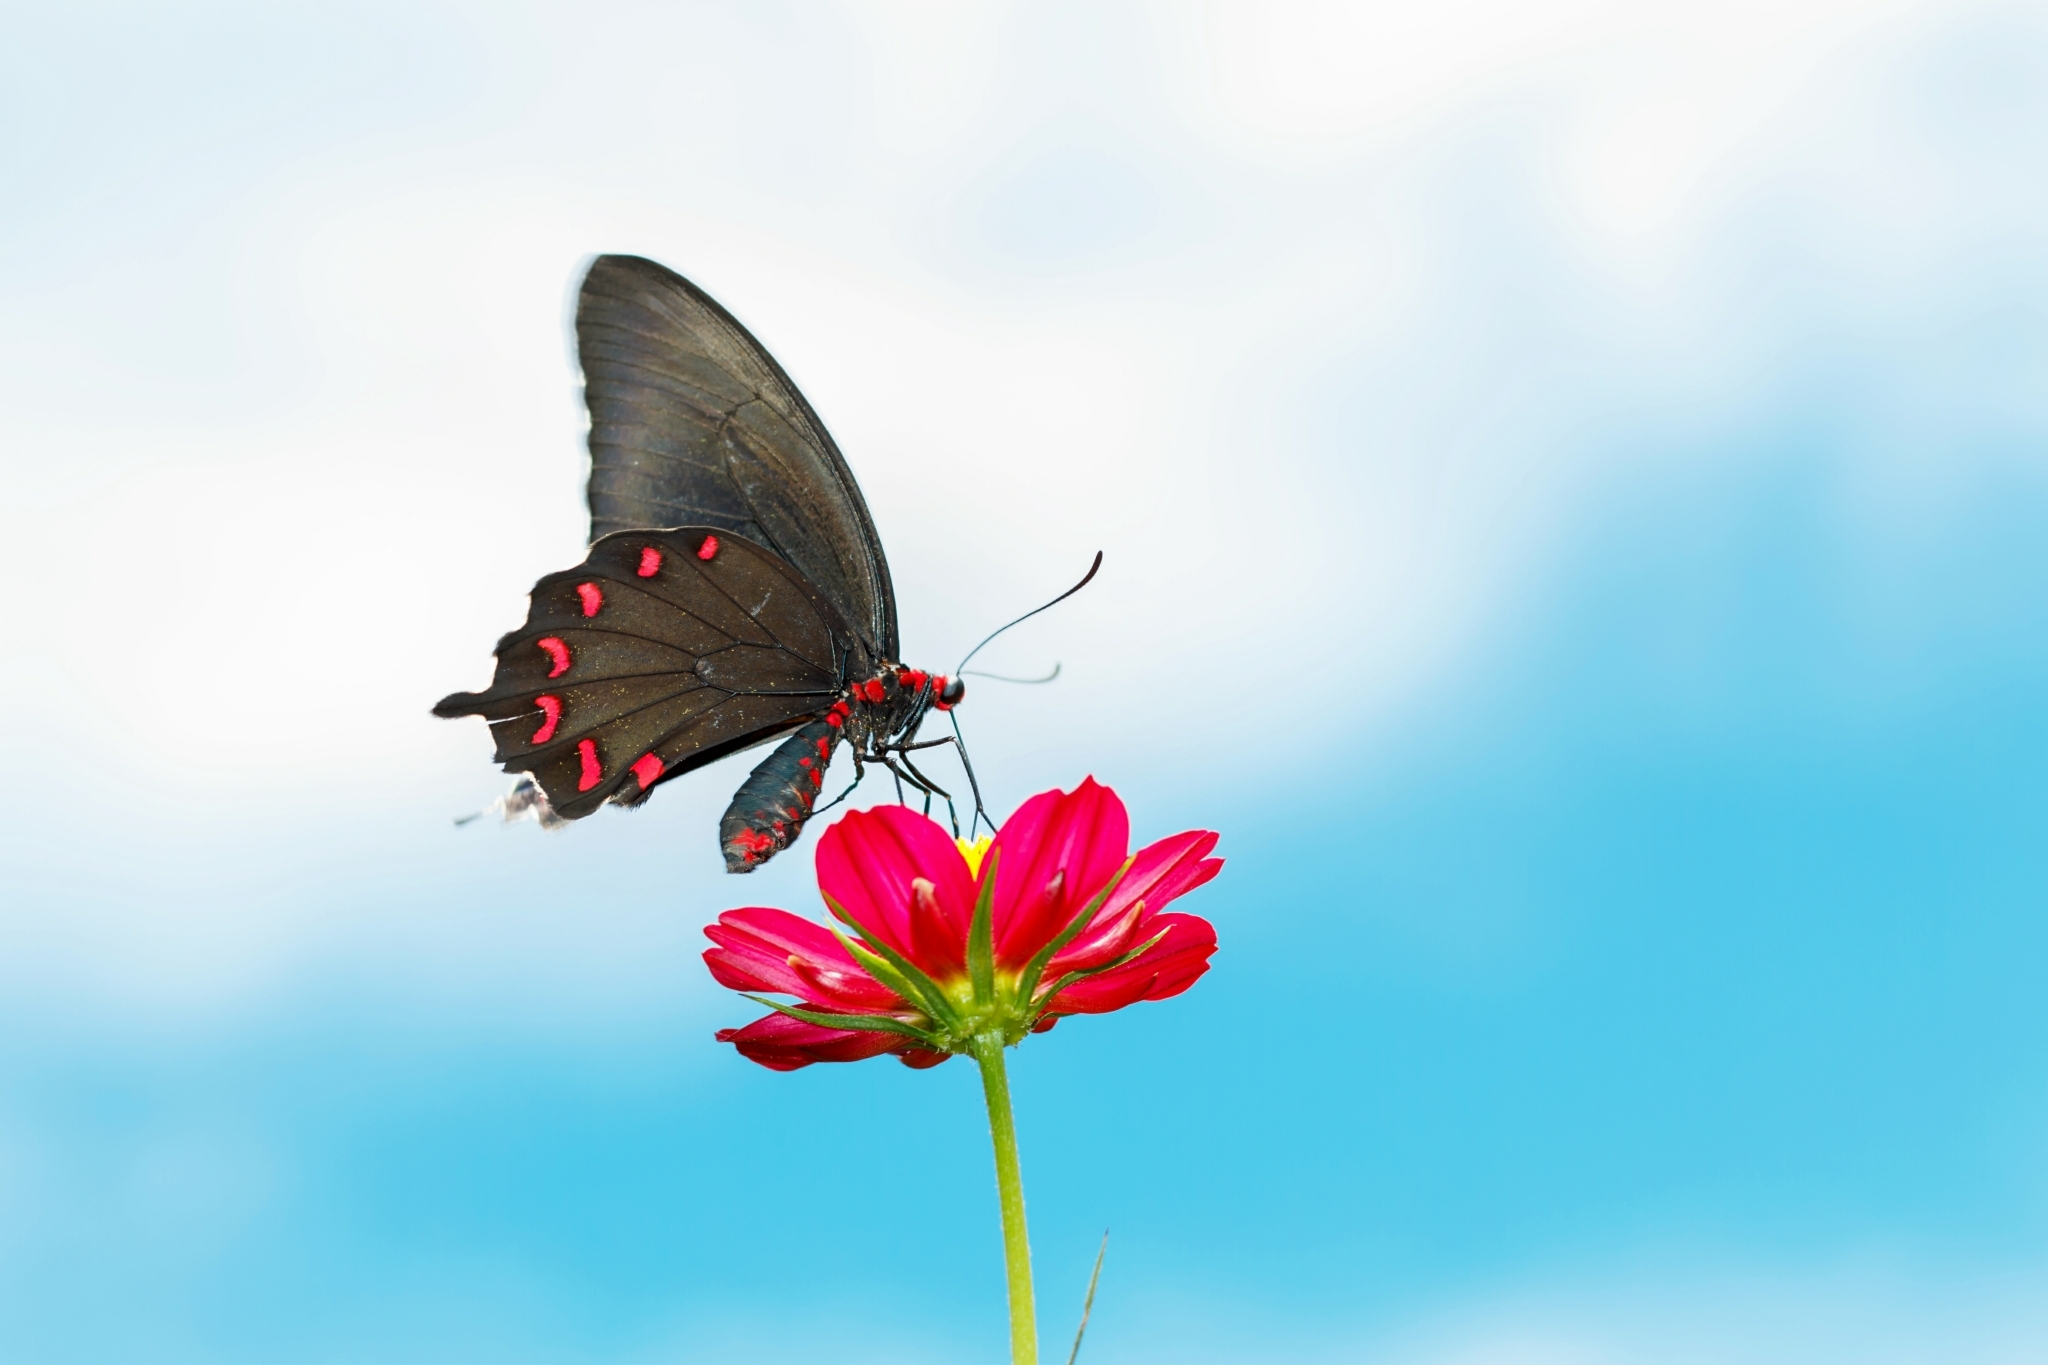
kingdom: Animalia
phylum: Arthropoda
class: Insecta
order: Lepidoptera
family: Papilionidae
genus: Parides
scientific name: Parides montezuma
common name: Montezuma's cattleheart
